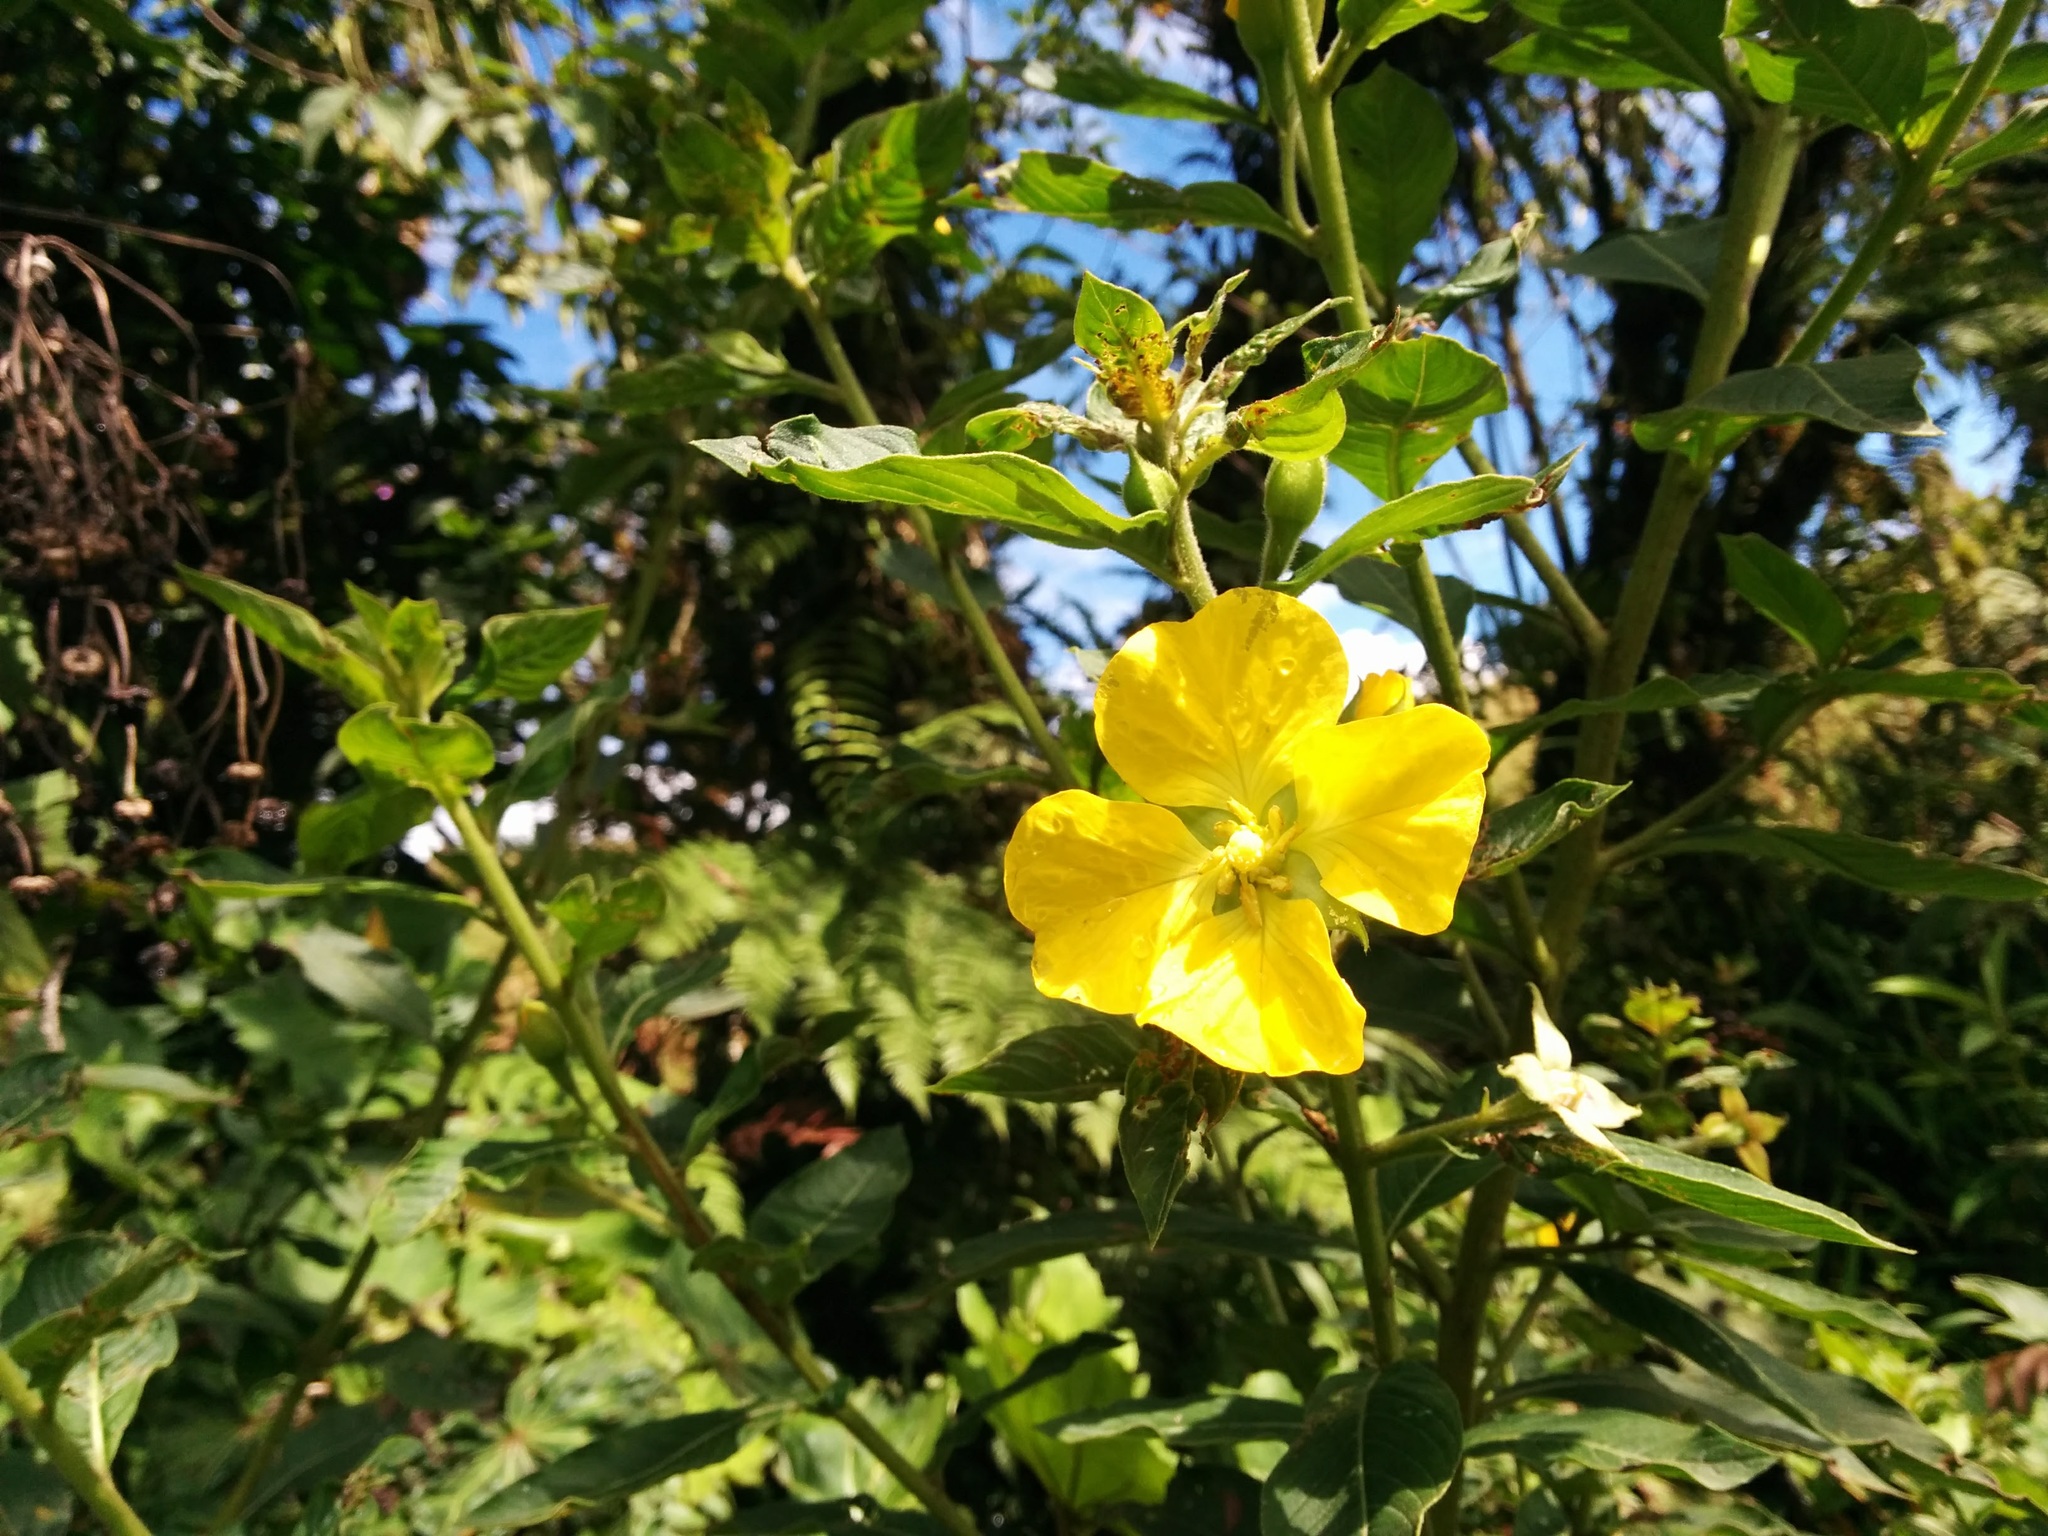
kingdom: Plantae
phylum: Tracheophyta
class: Magnoliopsida
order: Myrtales
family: Onagraceae
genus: Ludwigia
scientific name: Ludwigia peruviana
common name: Peruvian primrose-willow
